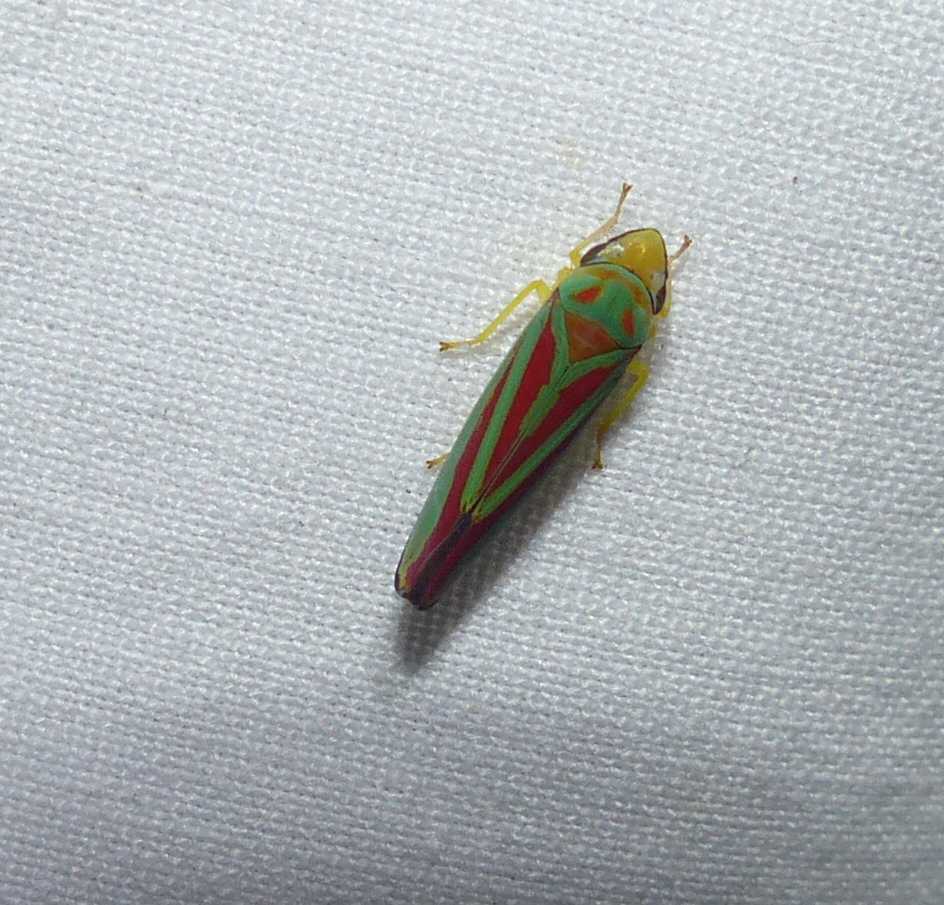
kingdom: Animalia
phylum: Arthropoda
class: Insecta
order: Hemiptera
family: Cicadellidae
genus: Graphocephala
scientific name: Graphocephala fennahi
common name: Rhododendron leafhopper
